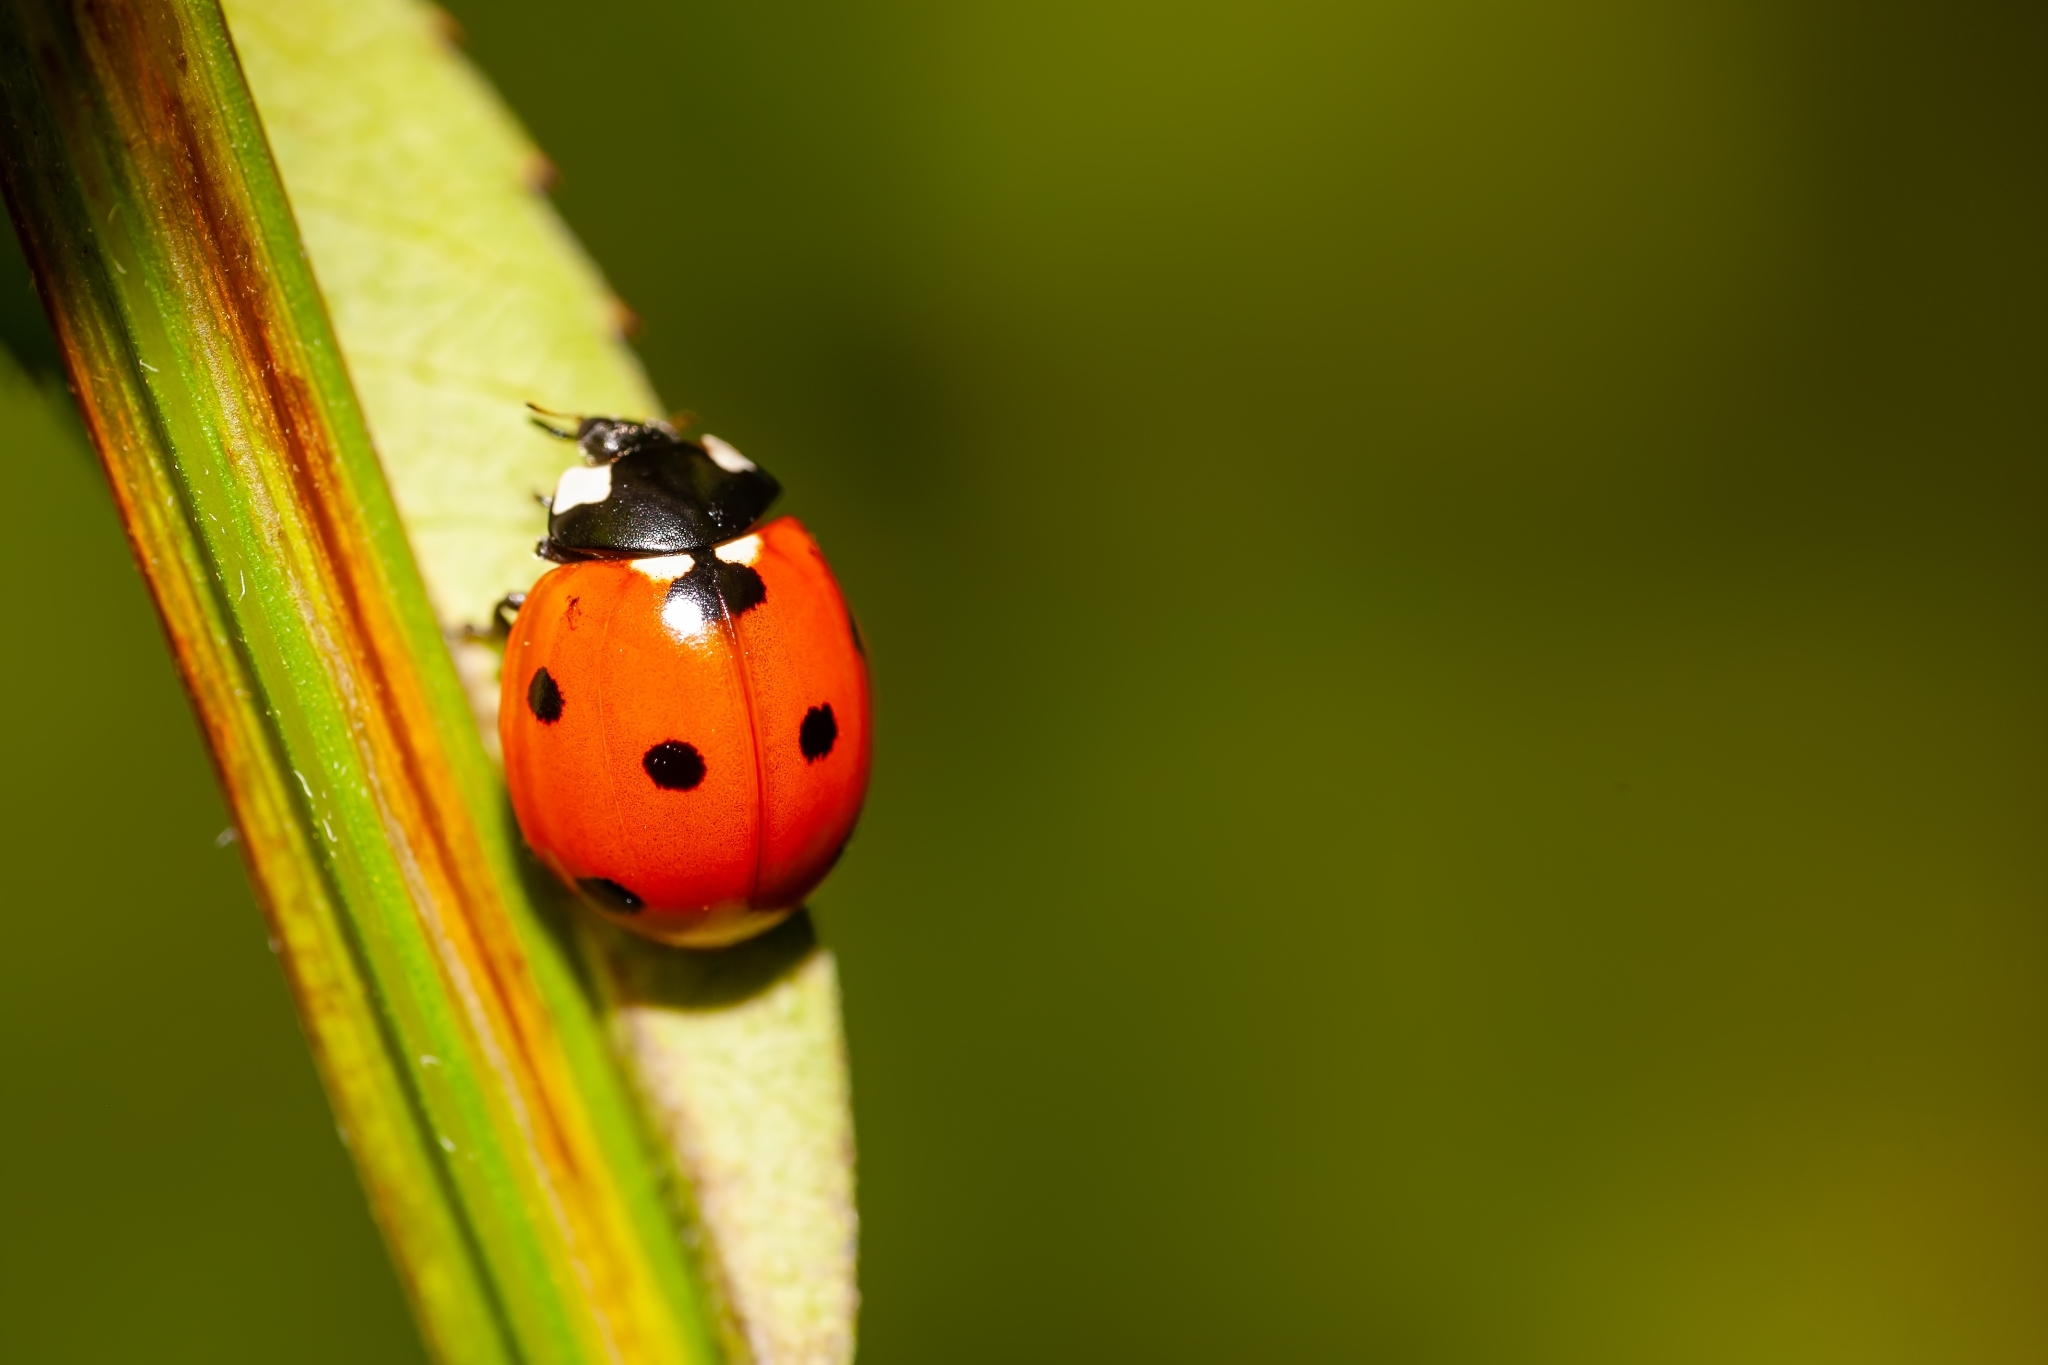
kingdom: Animalia
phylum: Arthropoda
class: Insecta
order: Coleoptera
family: Coccinellidae
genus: Coccinella
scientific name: Coccinella septempunctata
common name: Sevenspotted lady beetle
